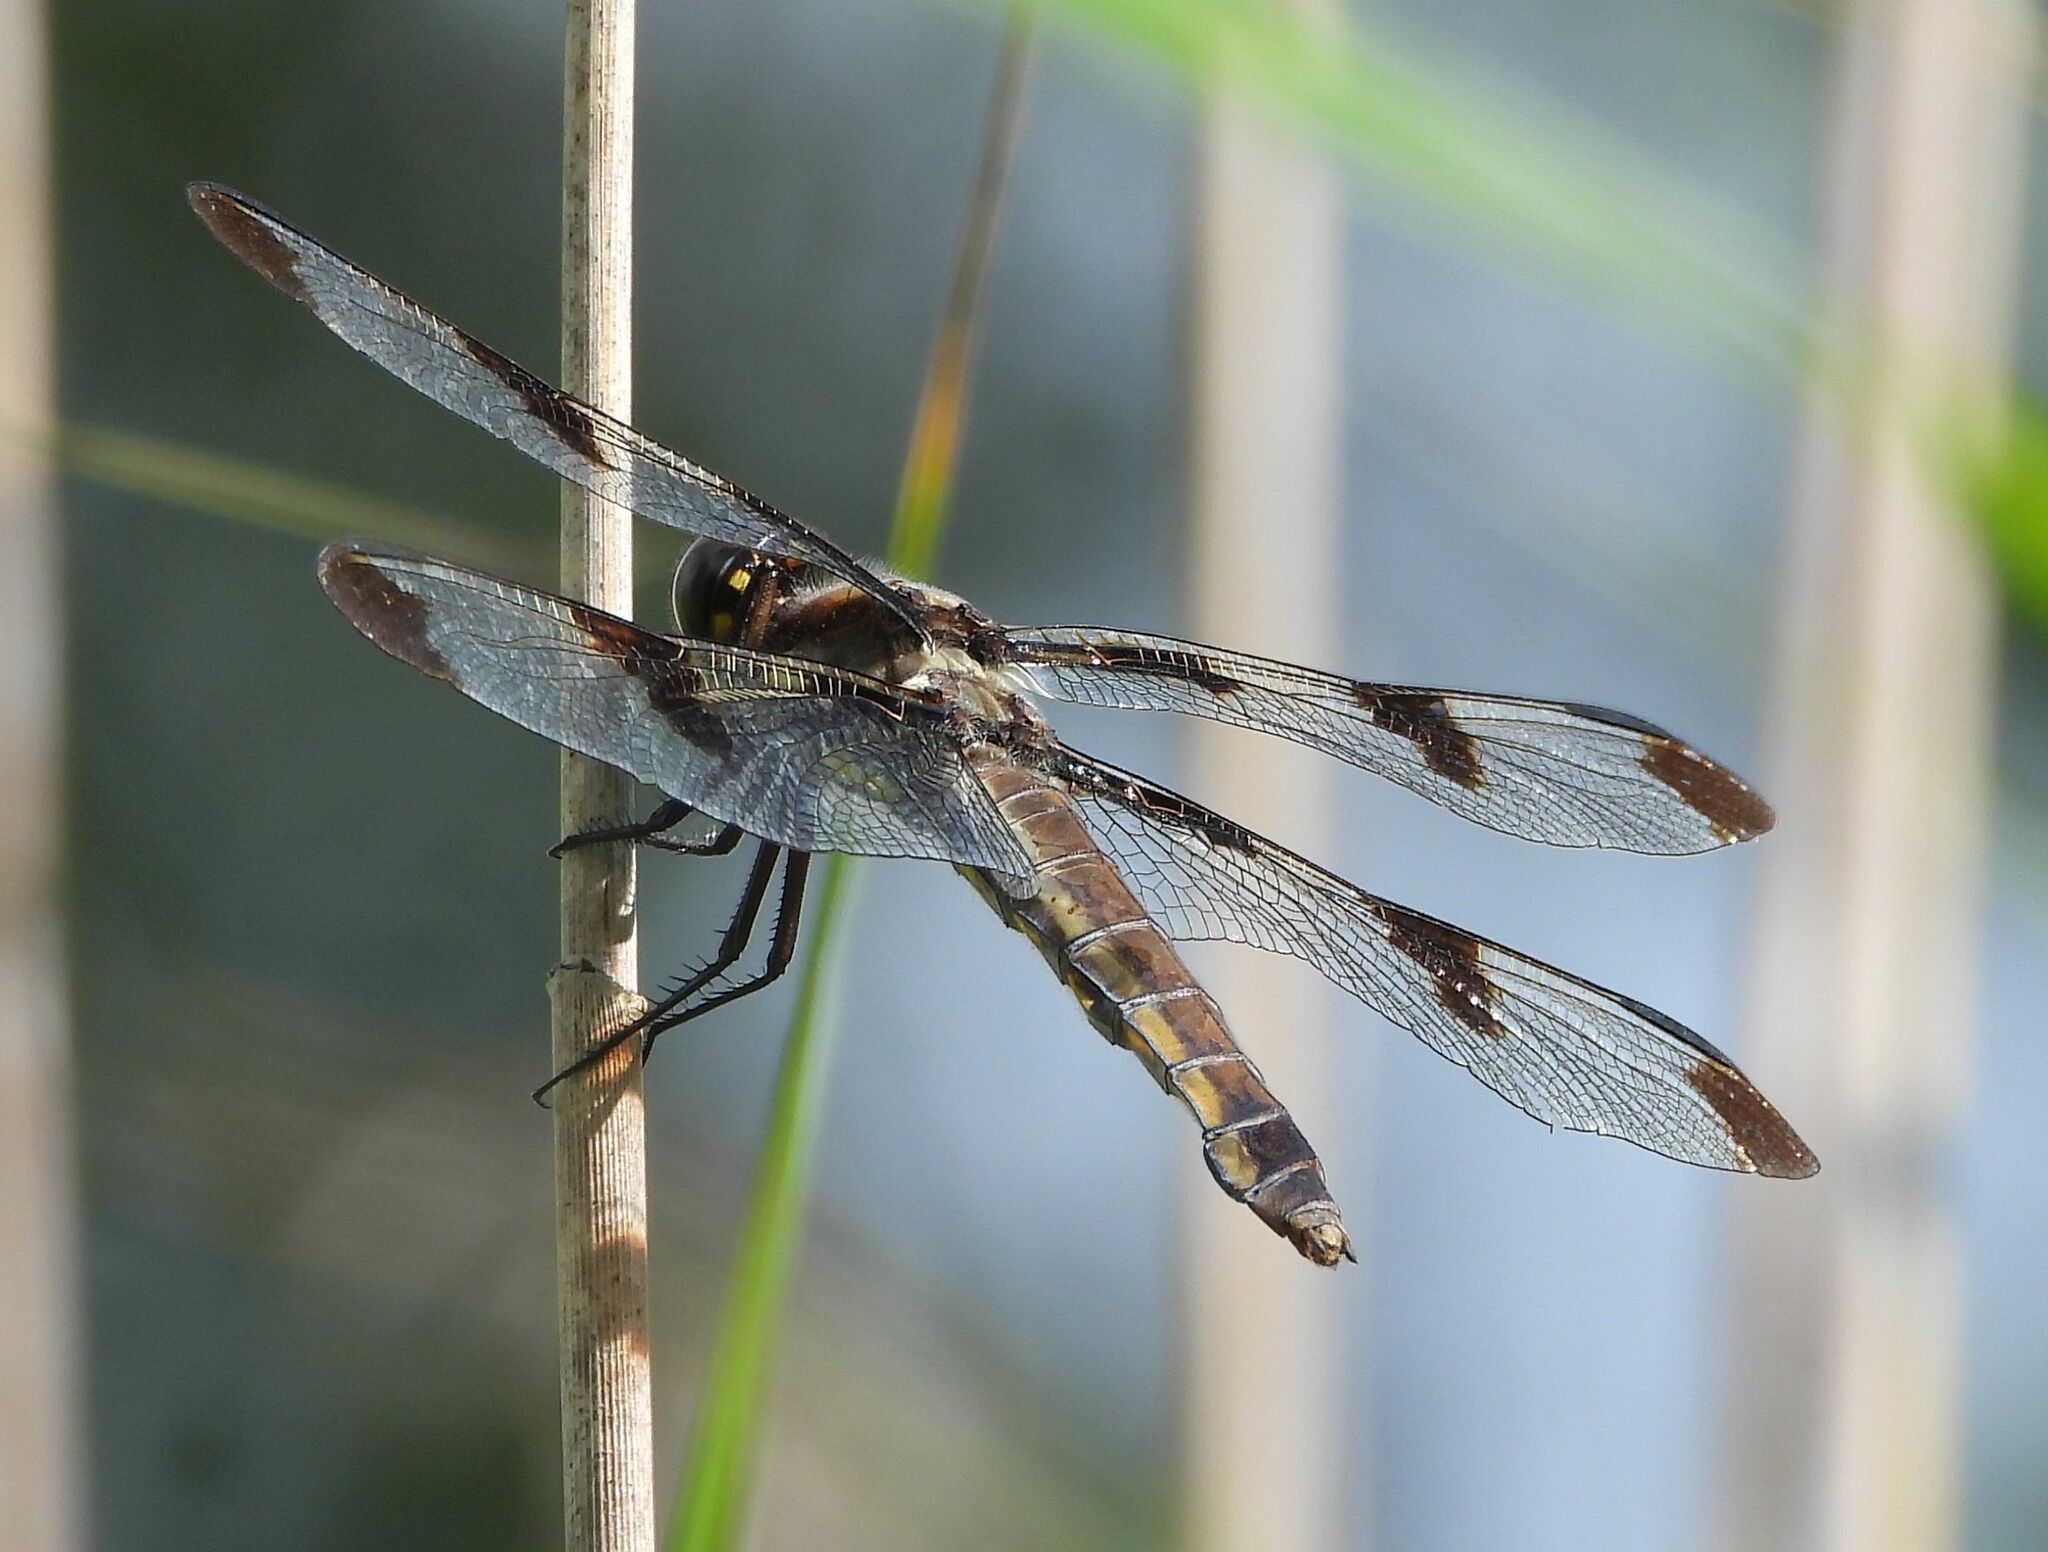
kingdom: Animalia
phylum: Arthropoda
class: Insecta
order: Odonata
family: Libellulidae
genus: Libellula
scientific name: Libellula pulchella
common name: Twelve-spotted skimmer
